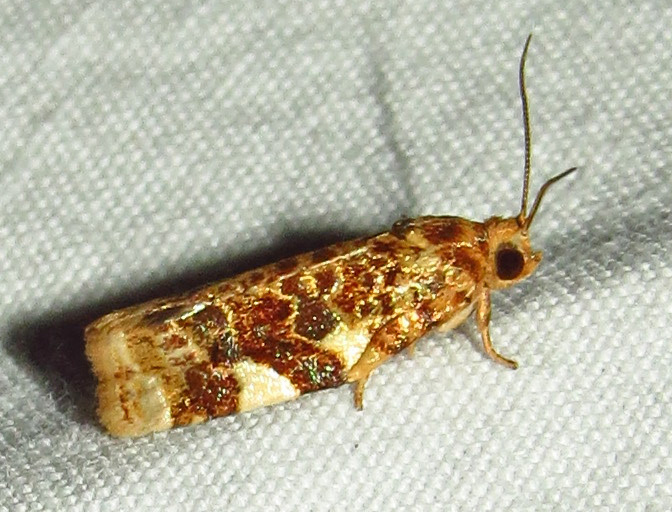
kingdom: Animalia
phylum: Arthropoda
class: Insecta
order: Lepidoptera
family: Tortricidae
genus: Archips
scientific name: Archips argyrospila
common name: Fruit-tree leafroller moth
